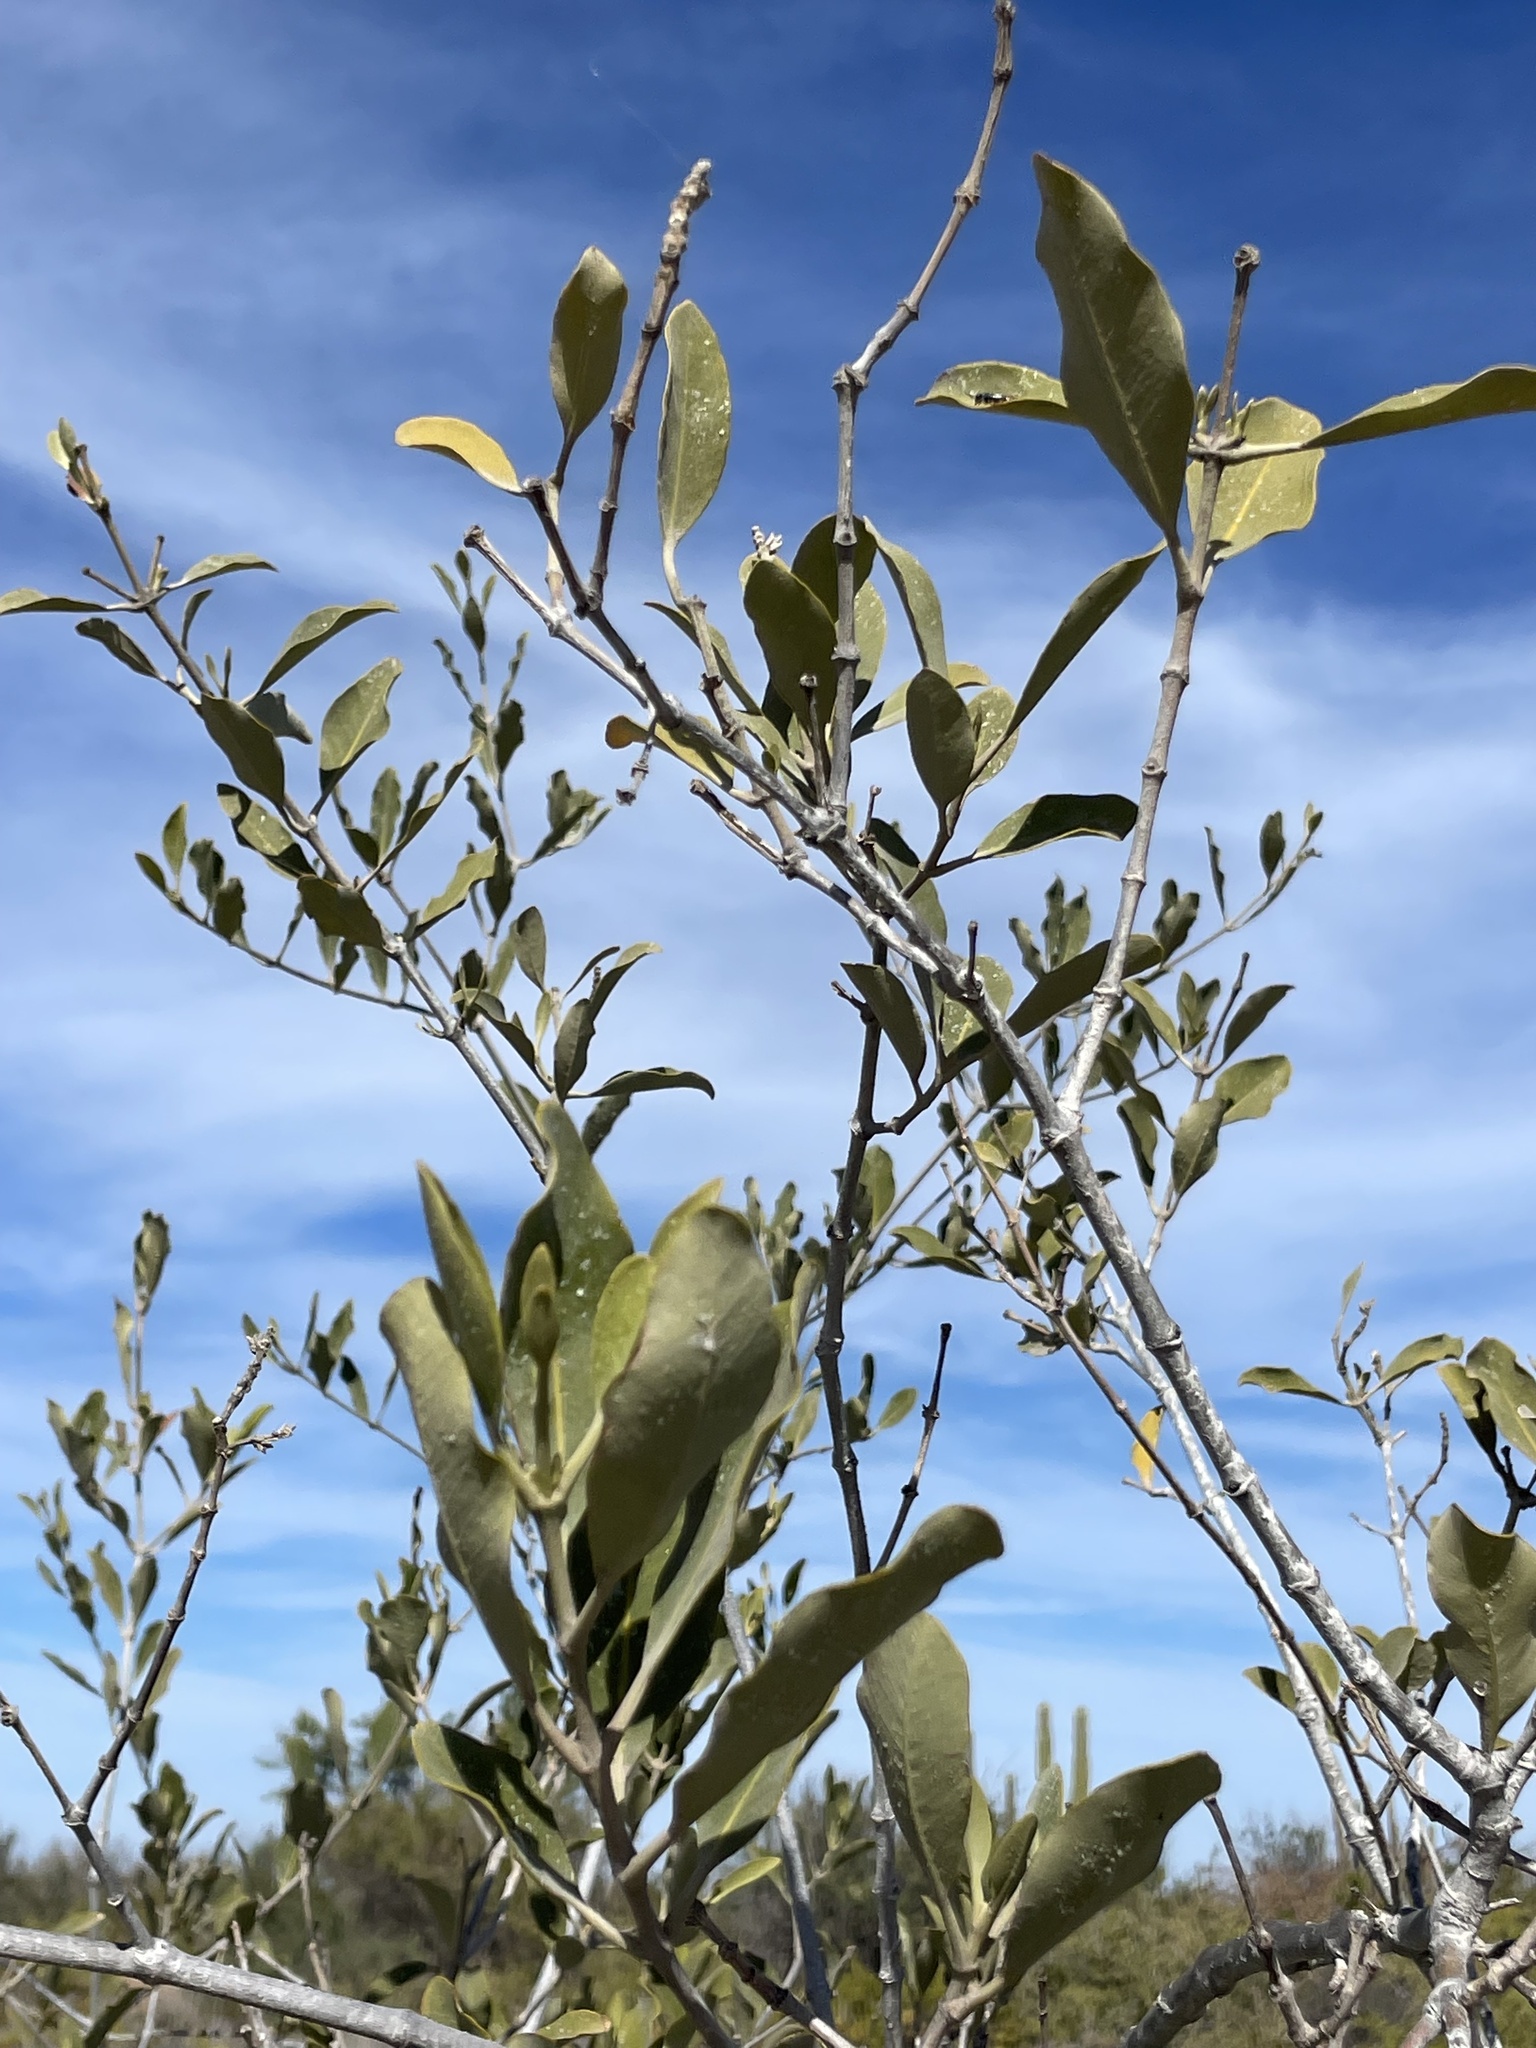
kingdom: Plantae
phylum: Tracheophyta
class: Magnoliopsida
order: Lamiales
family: Acanthaceae
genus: Avicennia
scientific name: Avicennia germinans
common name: Black mangrove
